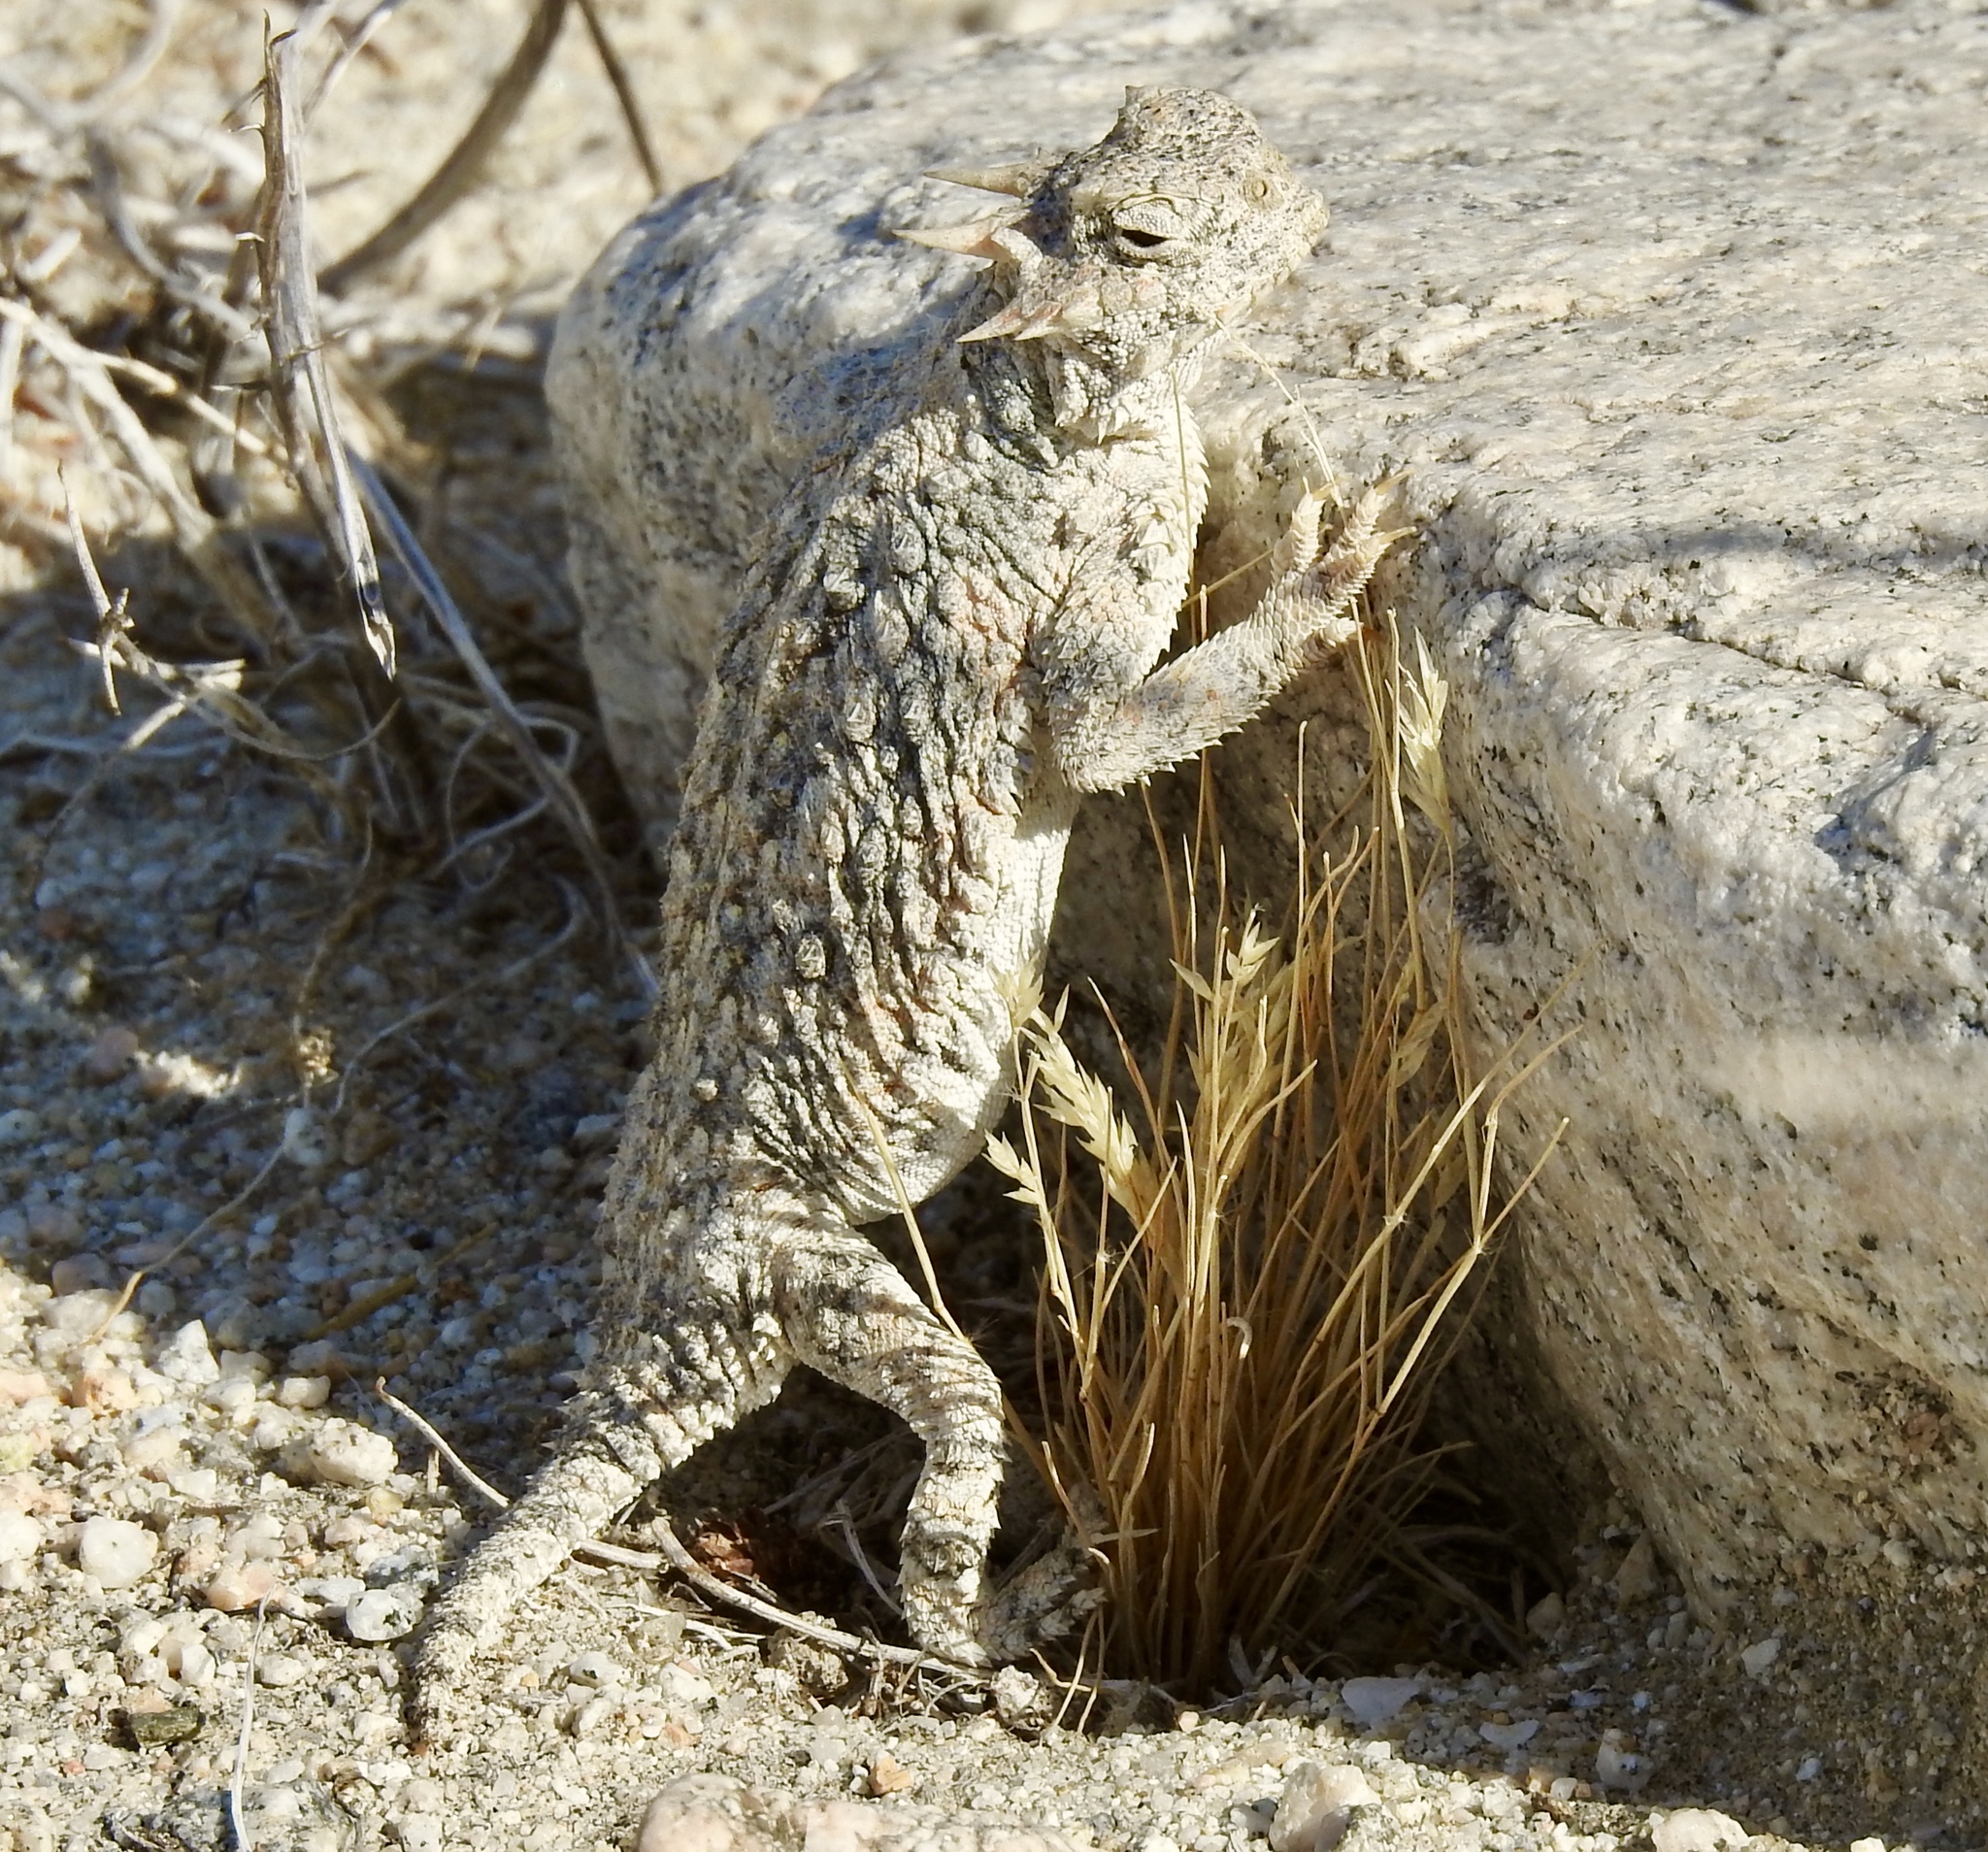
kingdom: Animalia
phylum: Chordata
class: Squamata
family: Phrynosomatidae
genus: Phrynosoma
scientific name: Phrynosoma platyrhinos
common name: Desert horned lizard
